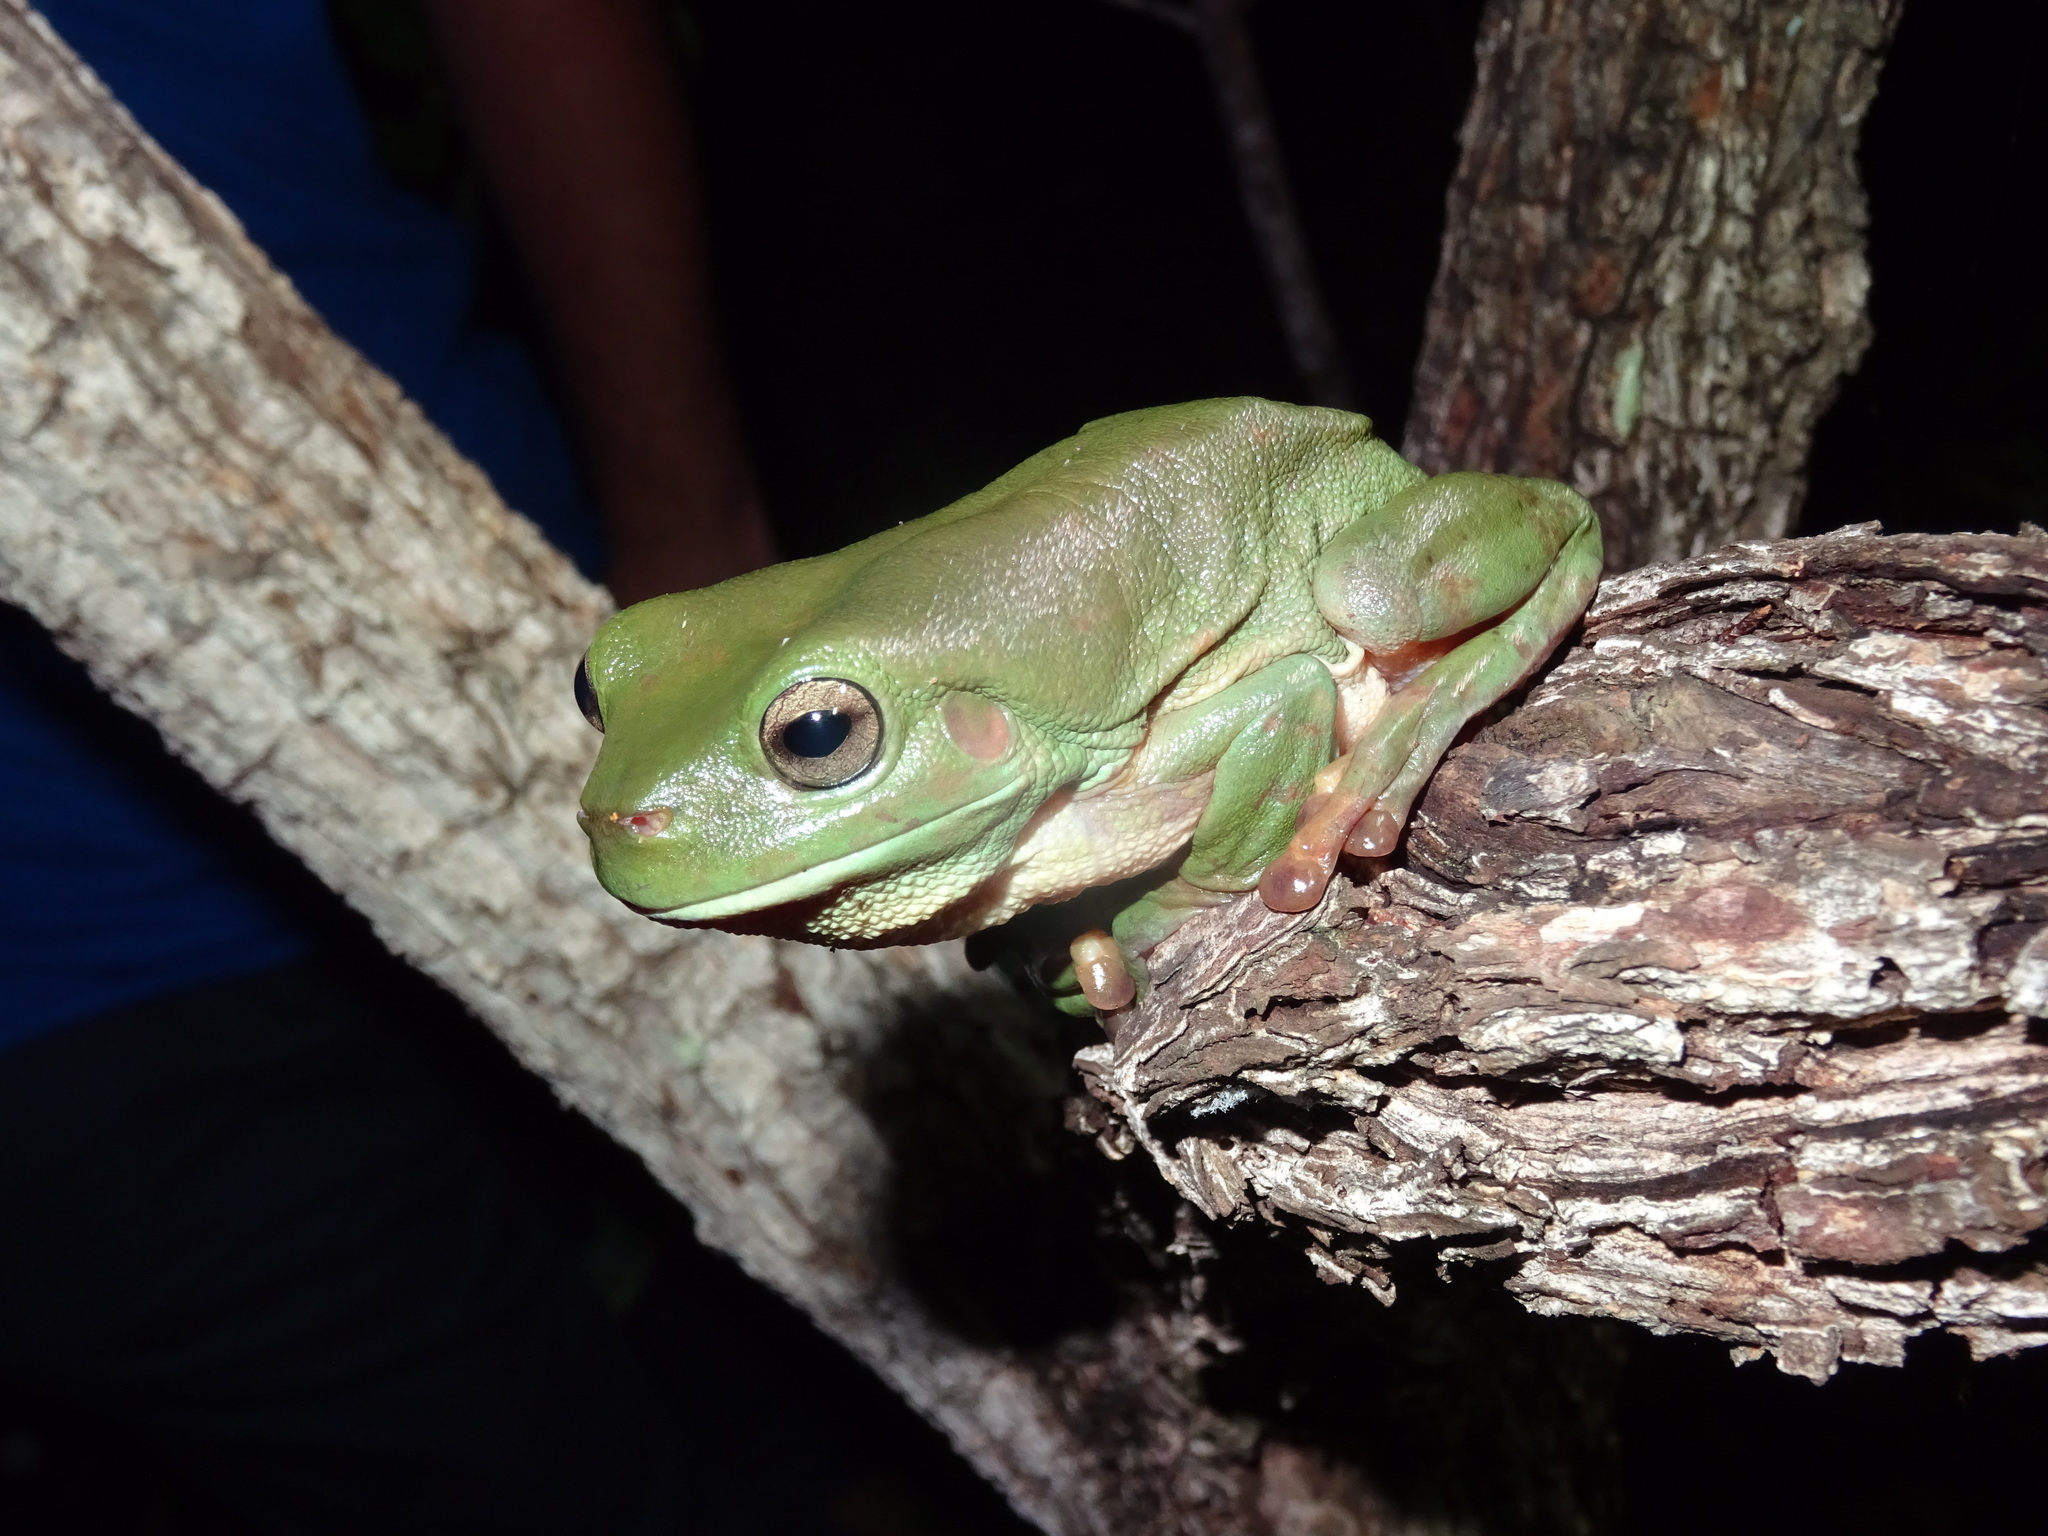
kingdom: Animalia
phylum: Chordata
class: Amphibia
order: Anura
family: Pelodryadidae
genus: Ranoidea
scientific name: Ranoidea caerulea
